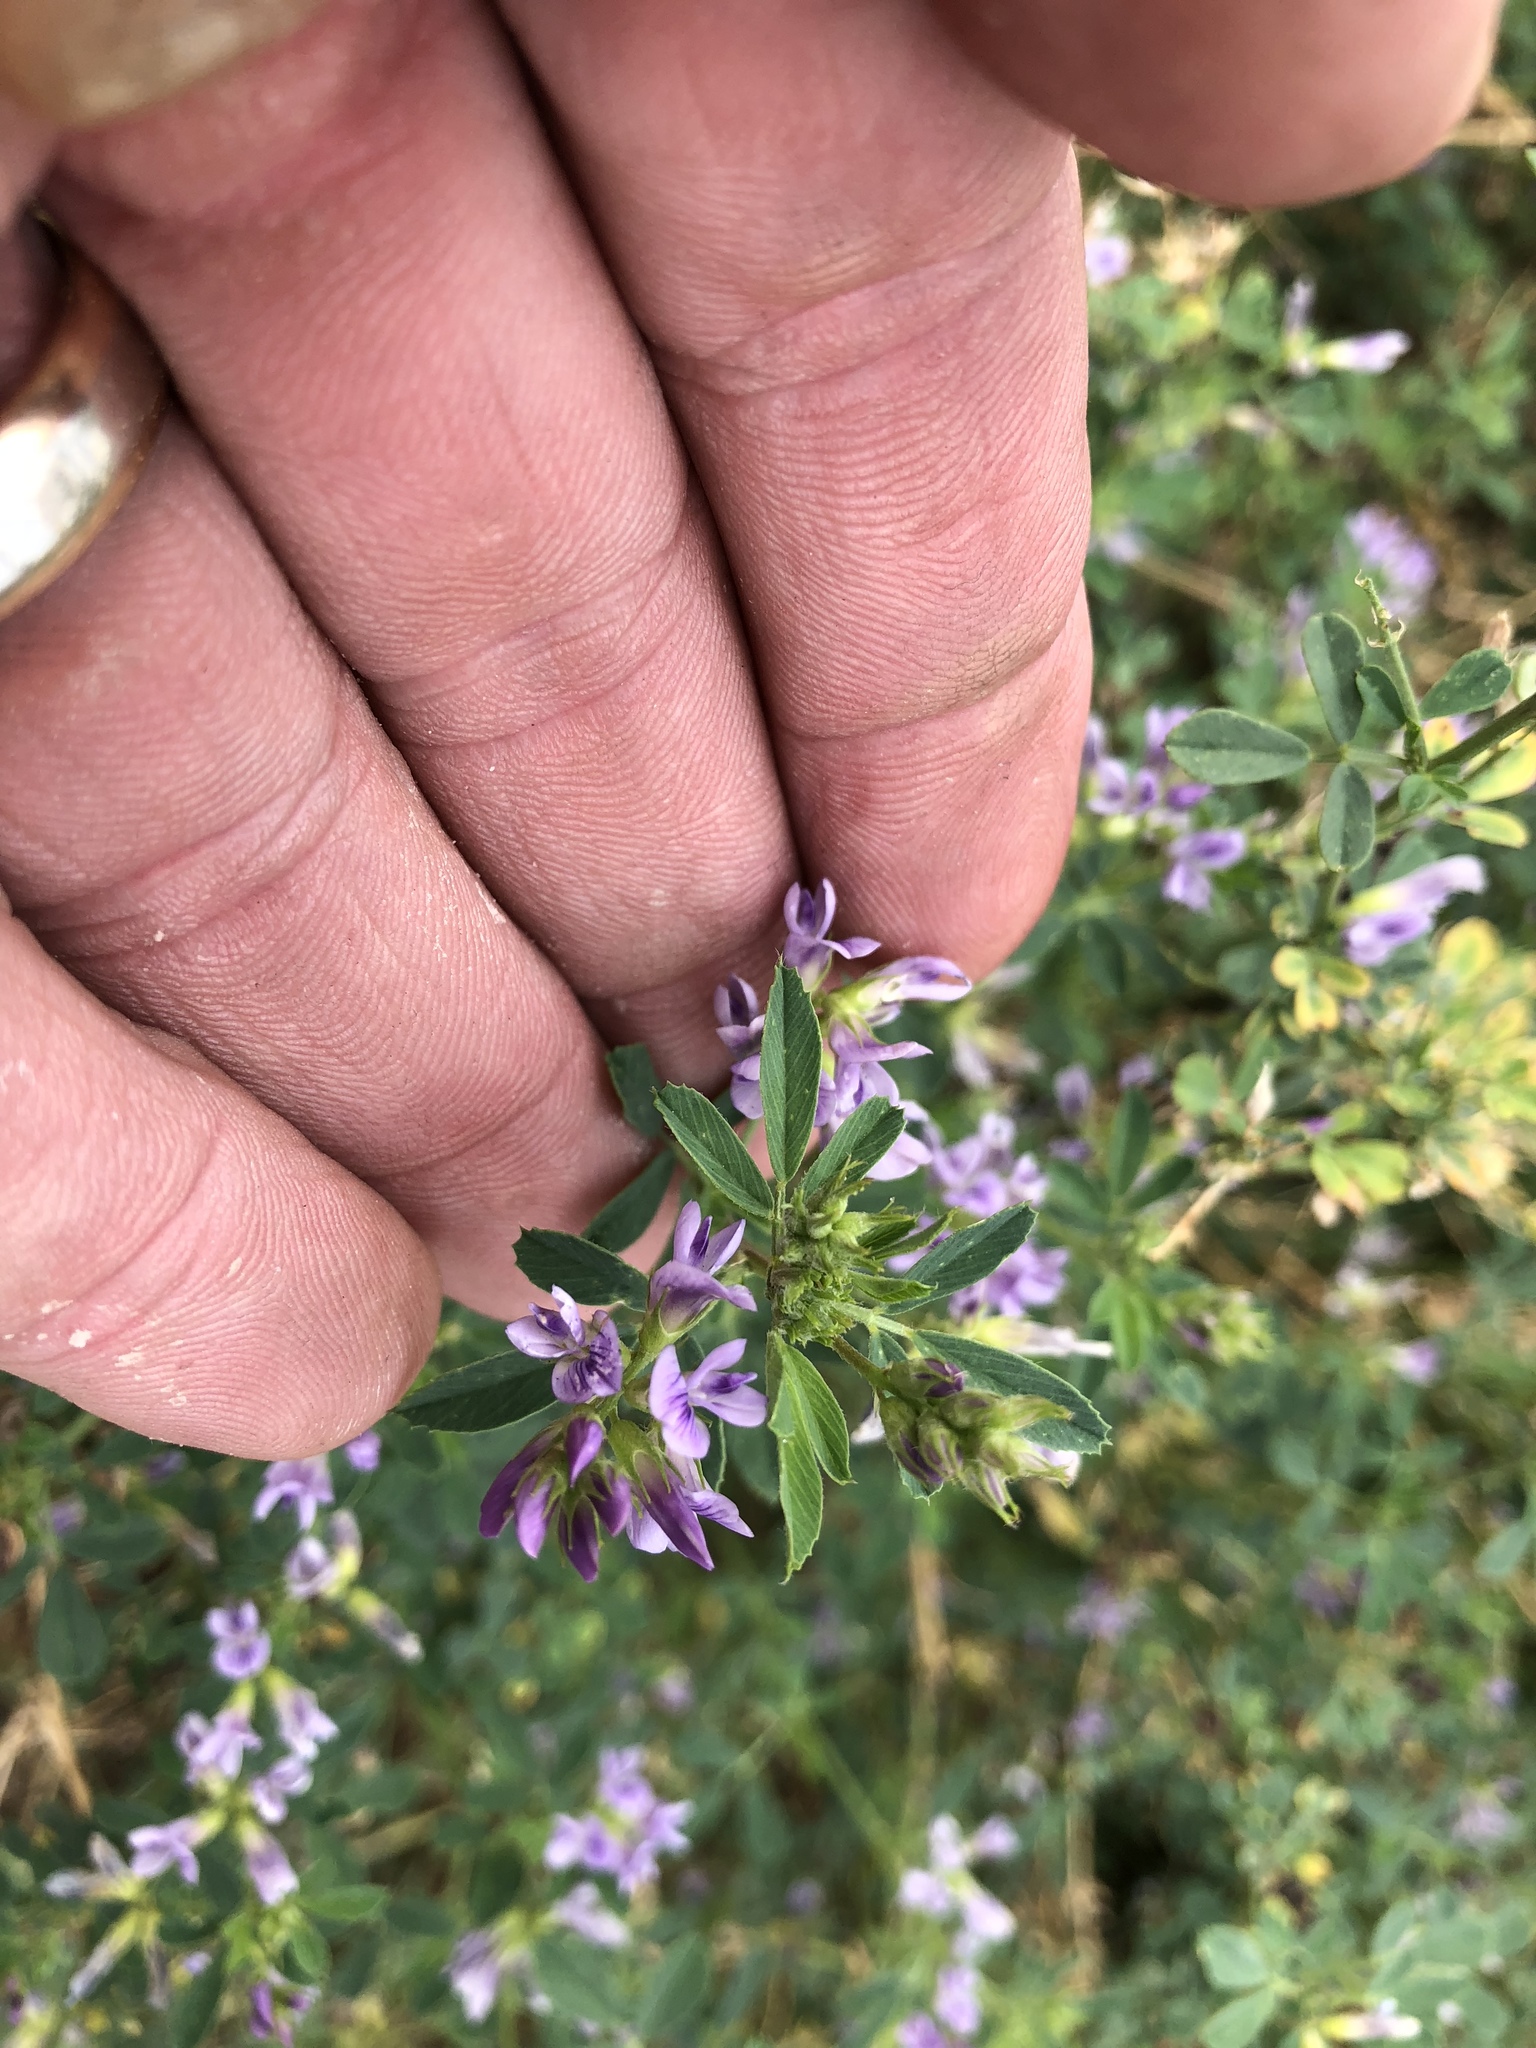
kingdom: Plantae
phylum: Tracheophyta
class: Magnoliopsida
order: Fabales
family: Fabaceae
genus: Medicago
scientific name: Medicago sativa
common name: Alfalfa
